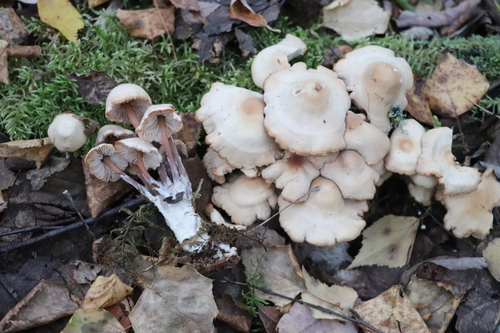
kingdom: Fungi
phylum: Basidiomycota
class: Agaricomycetes
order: Agaricales
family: Omphalotaceae
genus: Collybiopsis
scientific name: Collybiopsis
